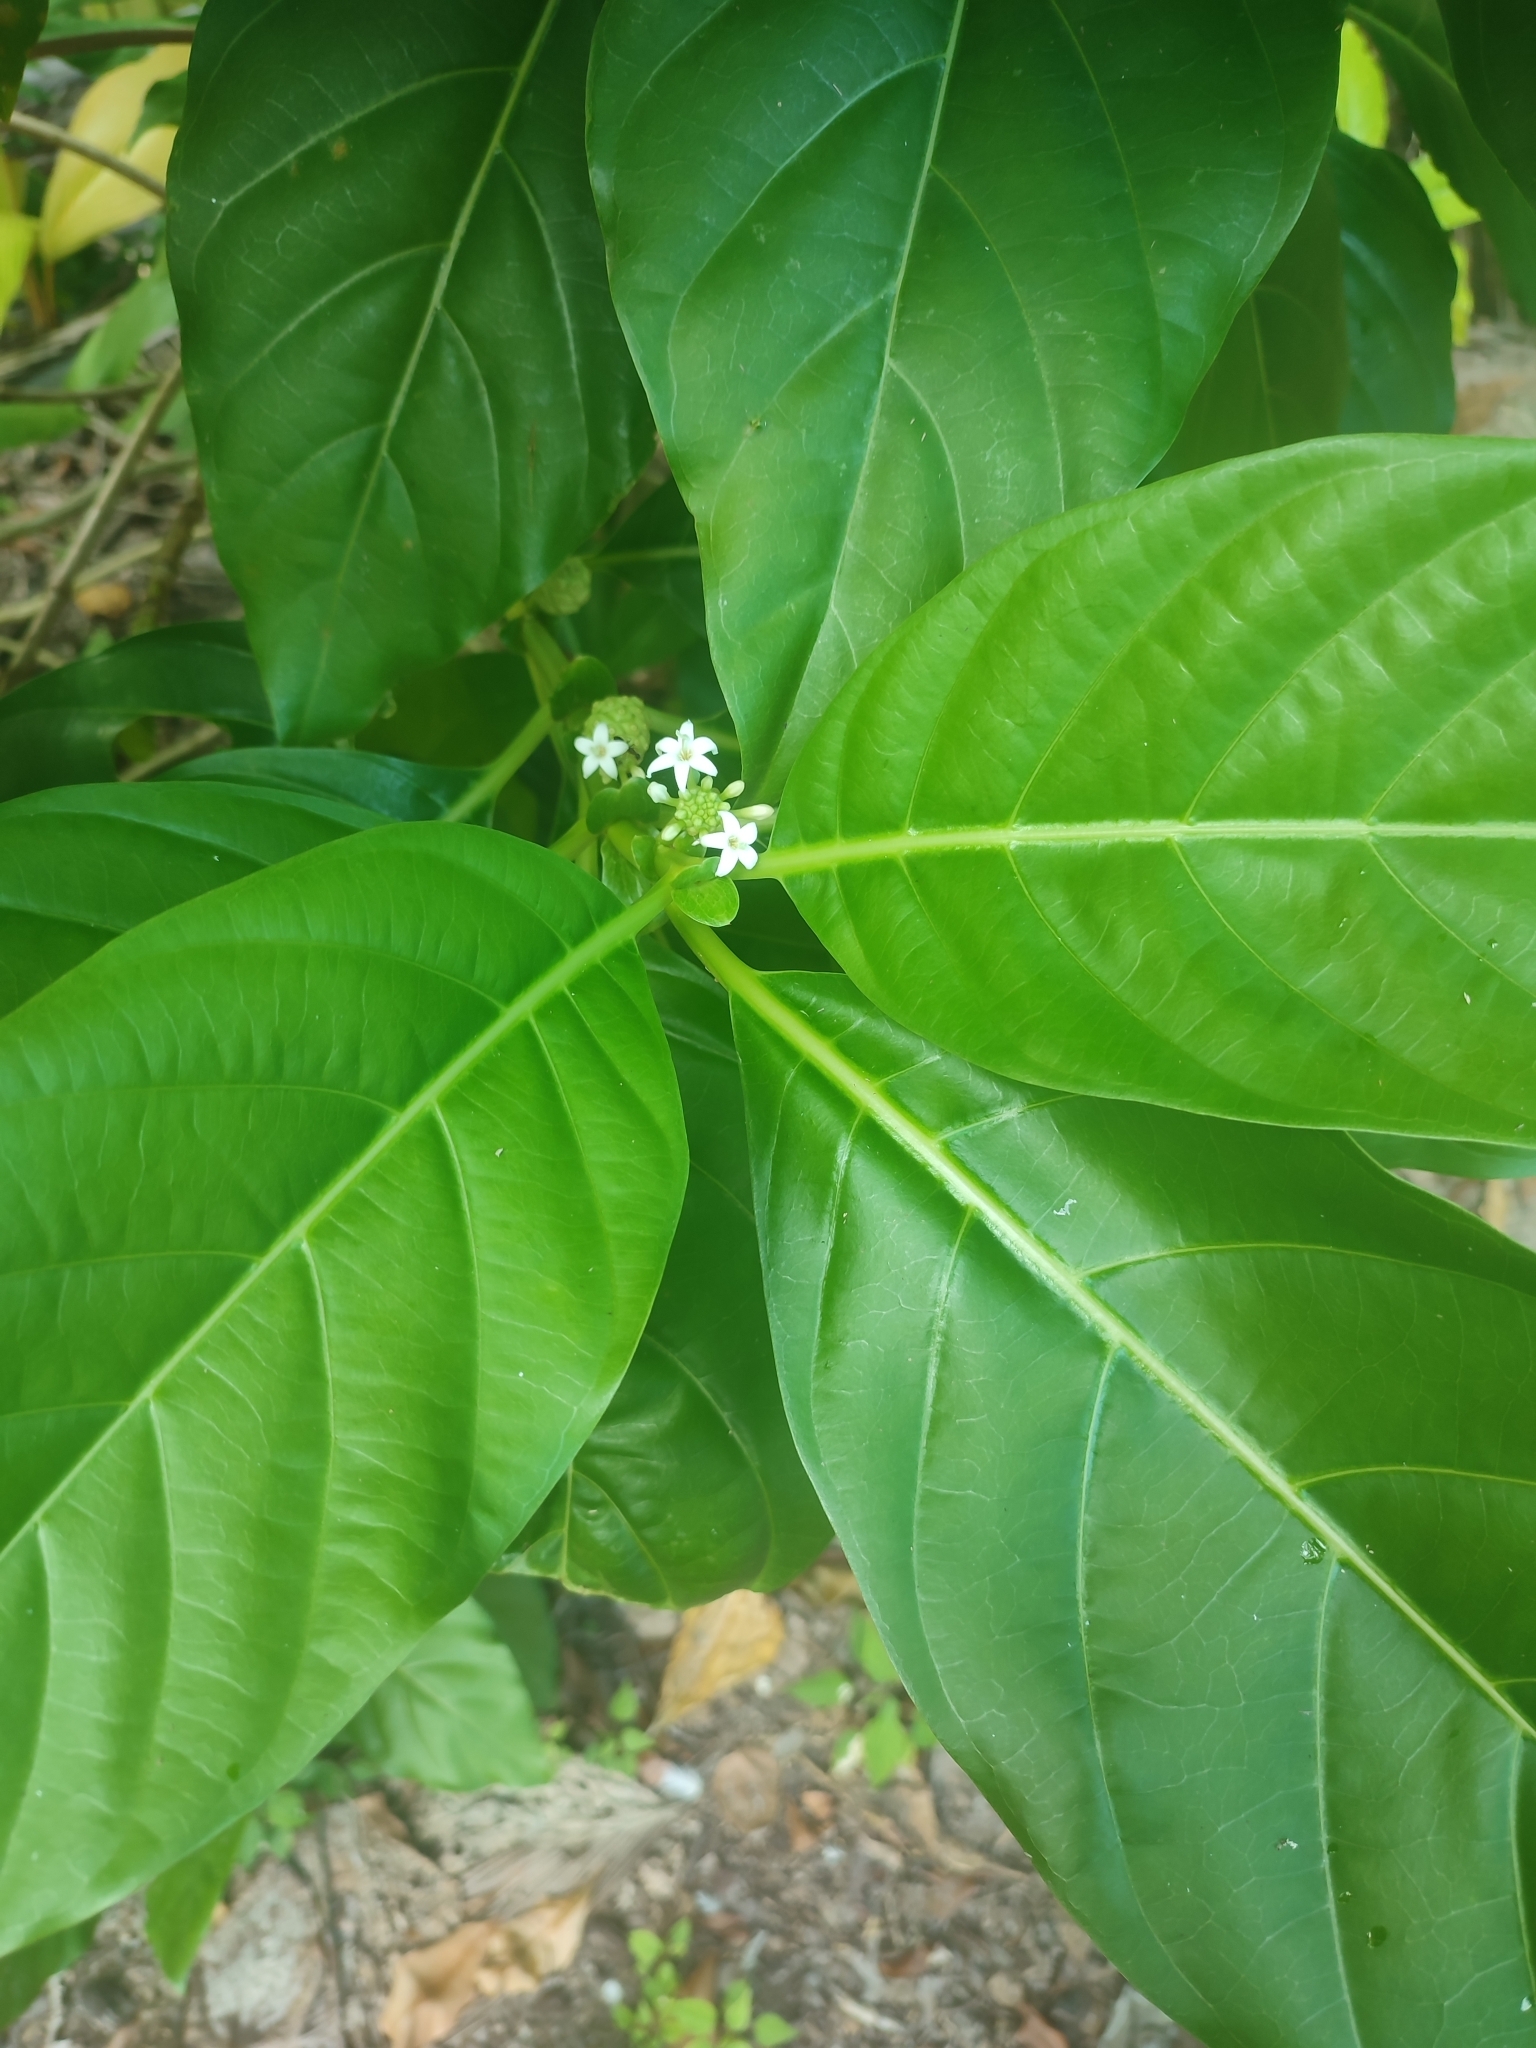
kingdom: Plantae
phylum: Tracheophyta
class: Magnoliopsida
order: Gentianales
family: Rubiaceae
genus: Morinda
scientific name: Morinda citrifolia
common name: Indian-mulberry
